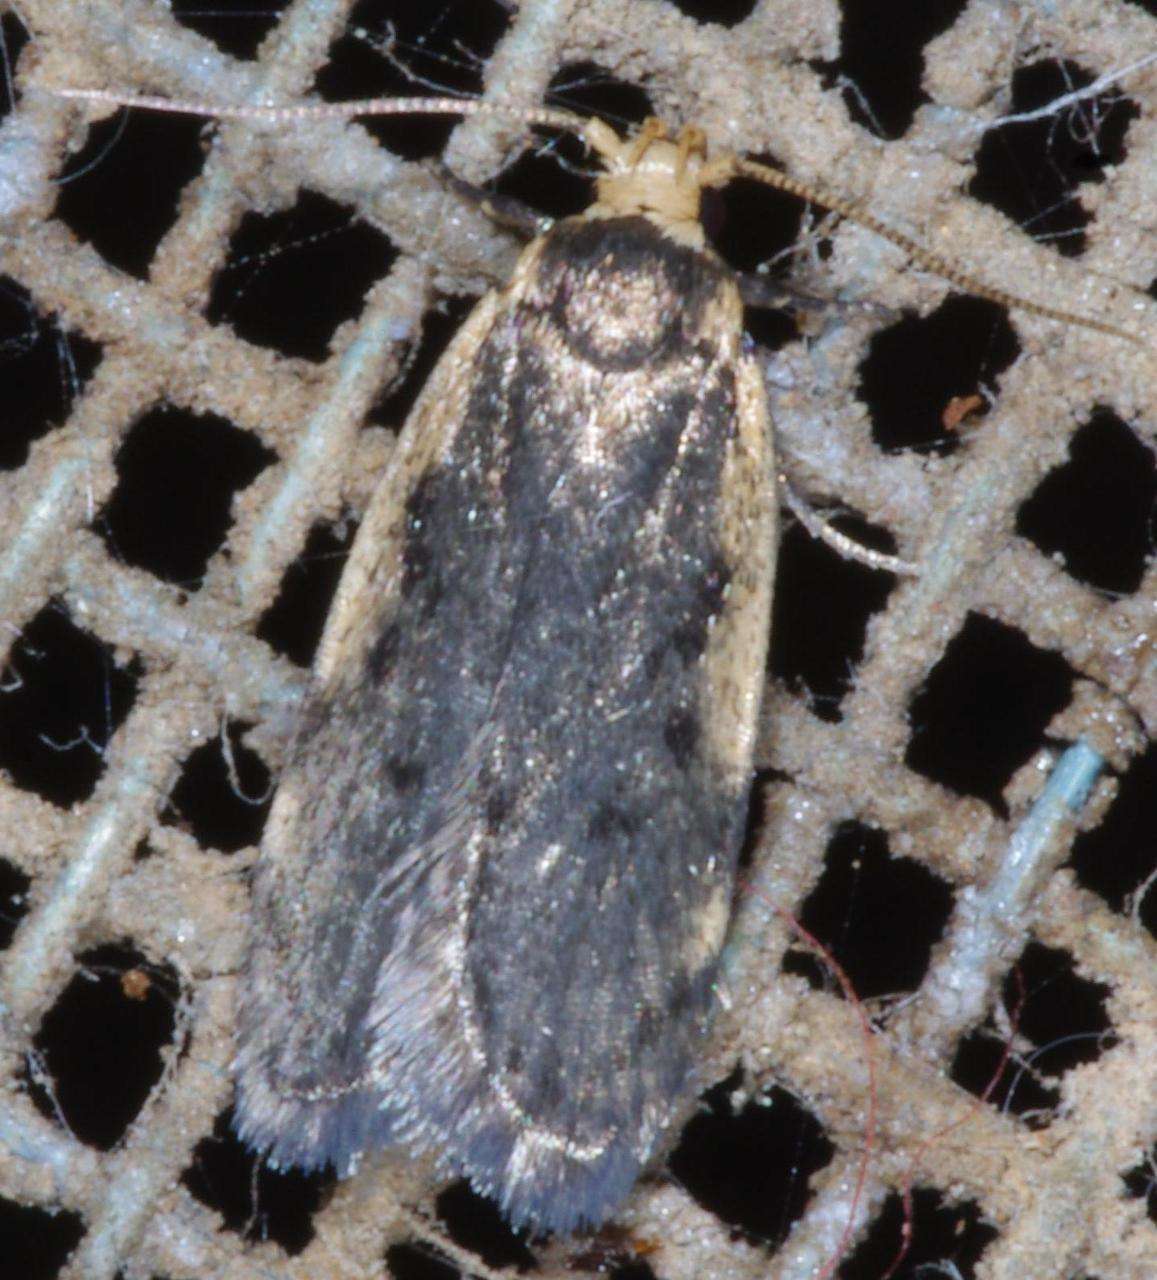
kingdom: Animalia
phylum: Arthropoda
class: Insecta
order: Lepidoptera
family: Oecophoridae
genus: Hoplostega
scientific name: Hoplostega ochroma
